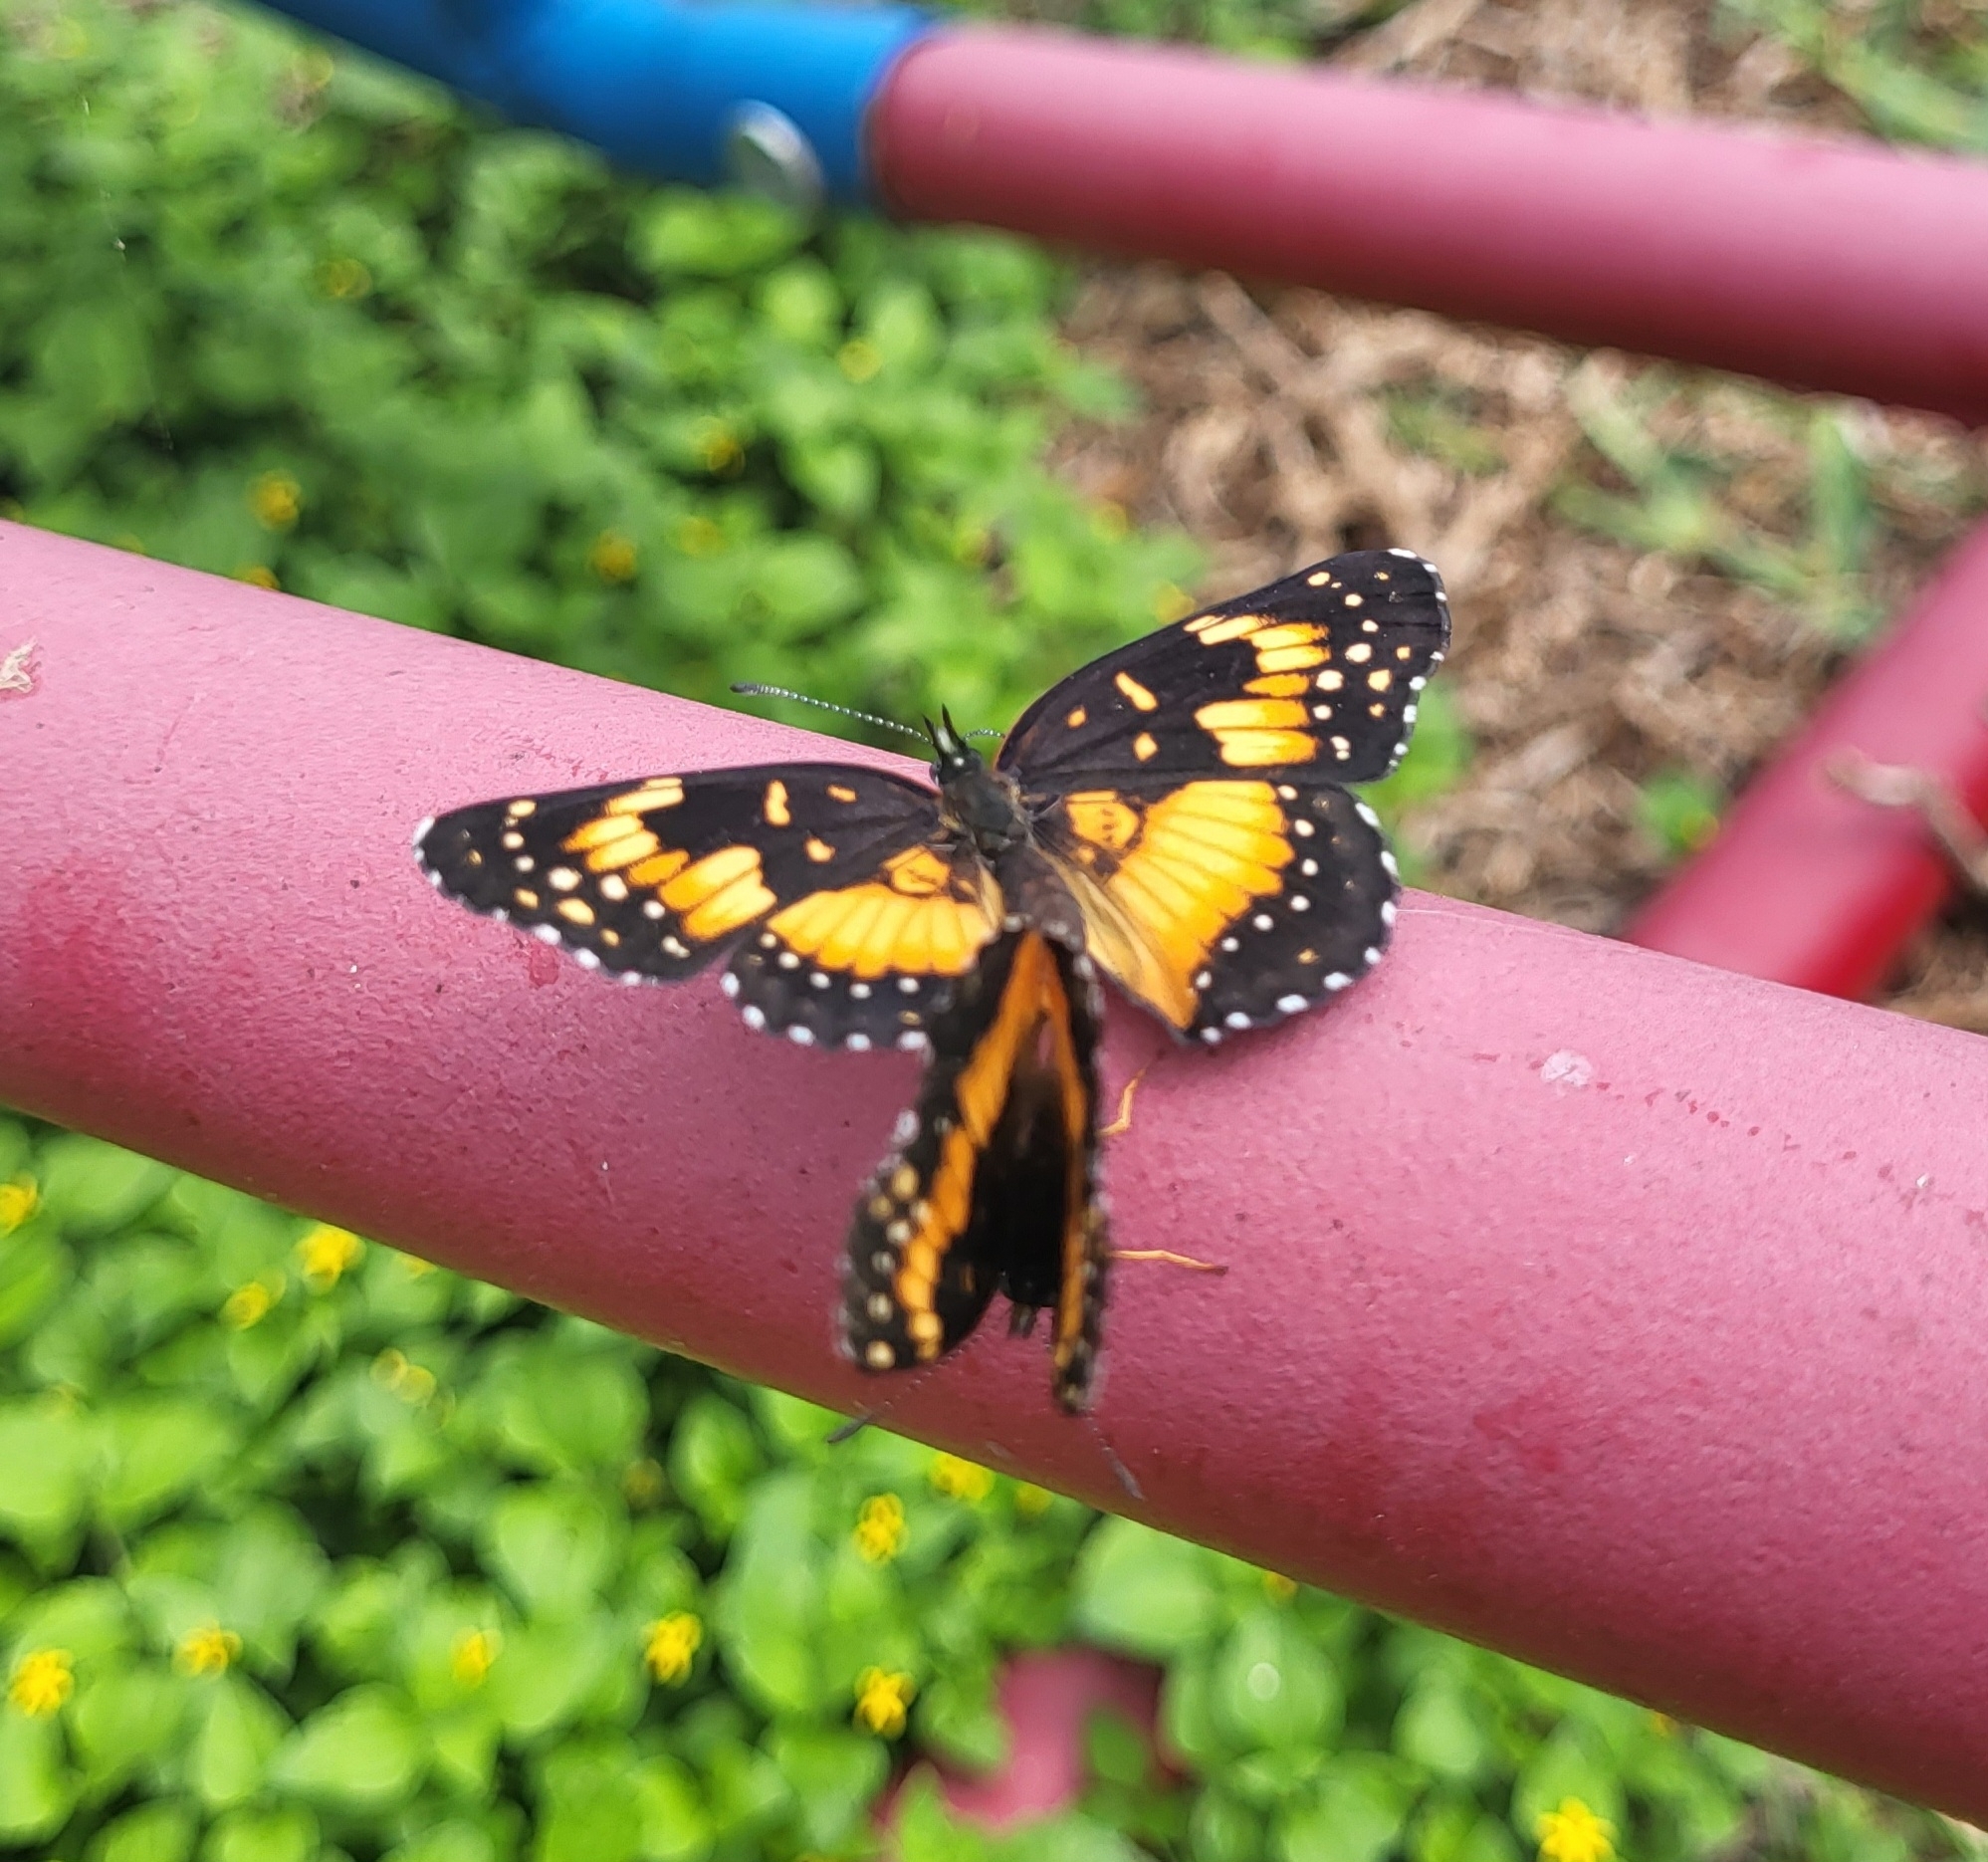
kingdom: Animalia
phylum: Arthropoda
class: Insecta
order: Lepidoptera
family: Nymphalidae
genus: Chlosyne
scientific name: Chlosyne lacinia
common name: Bordered patch
